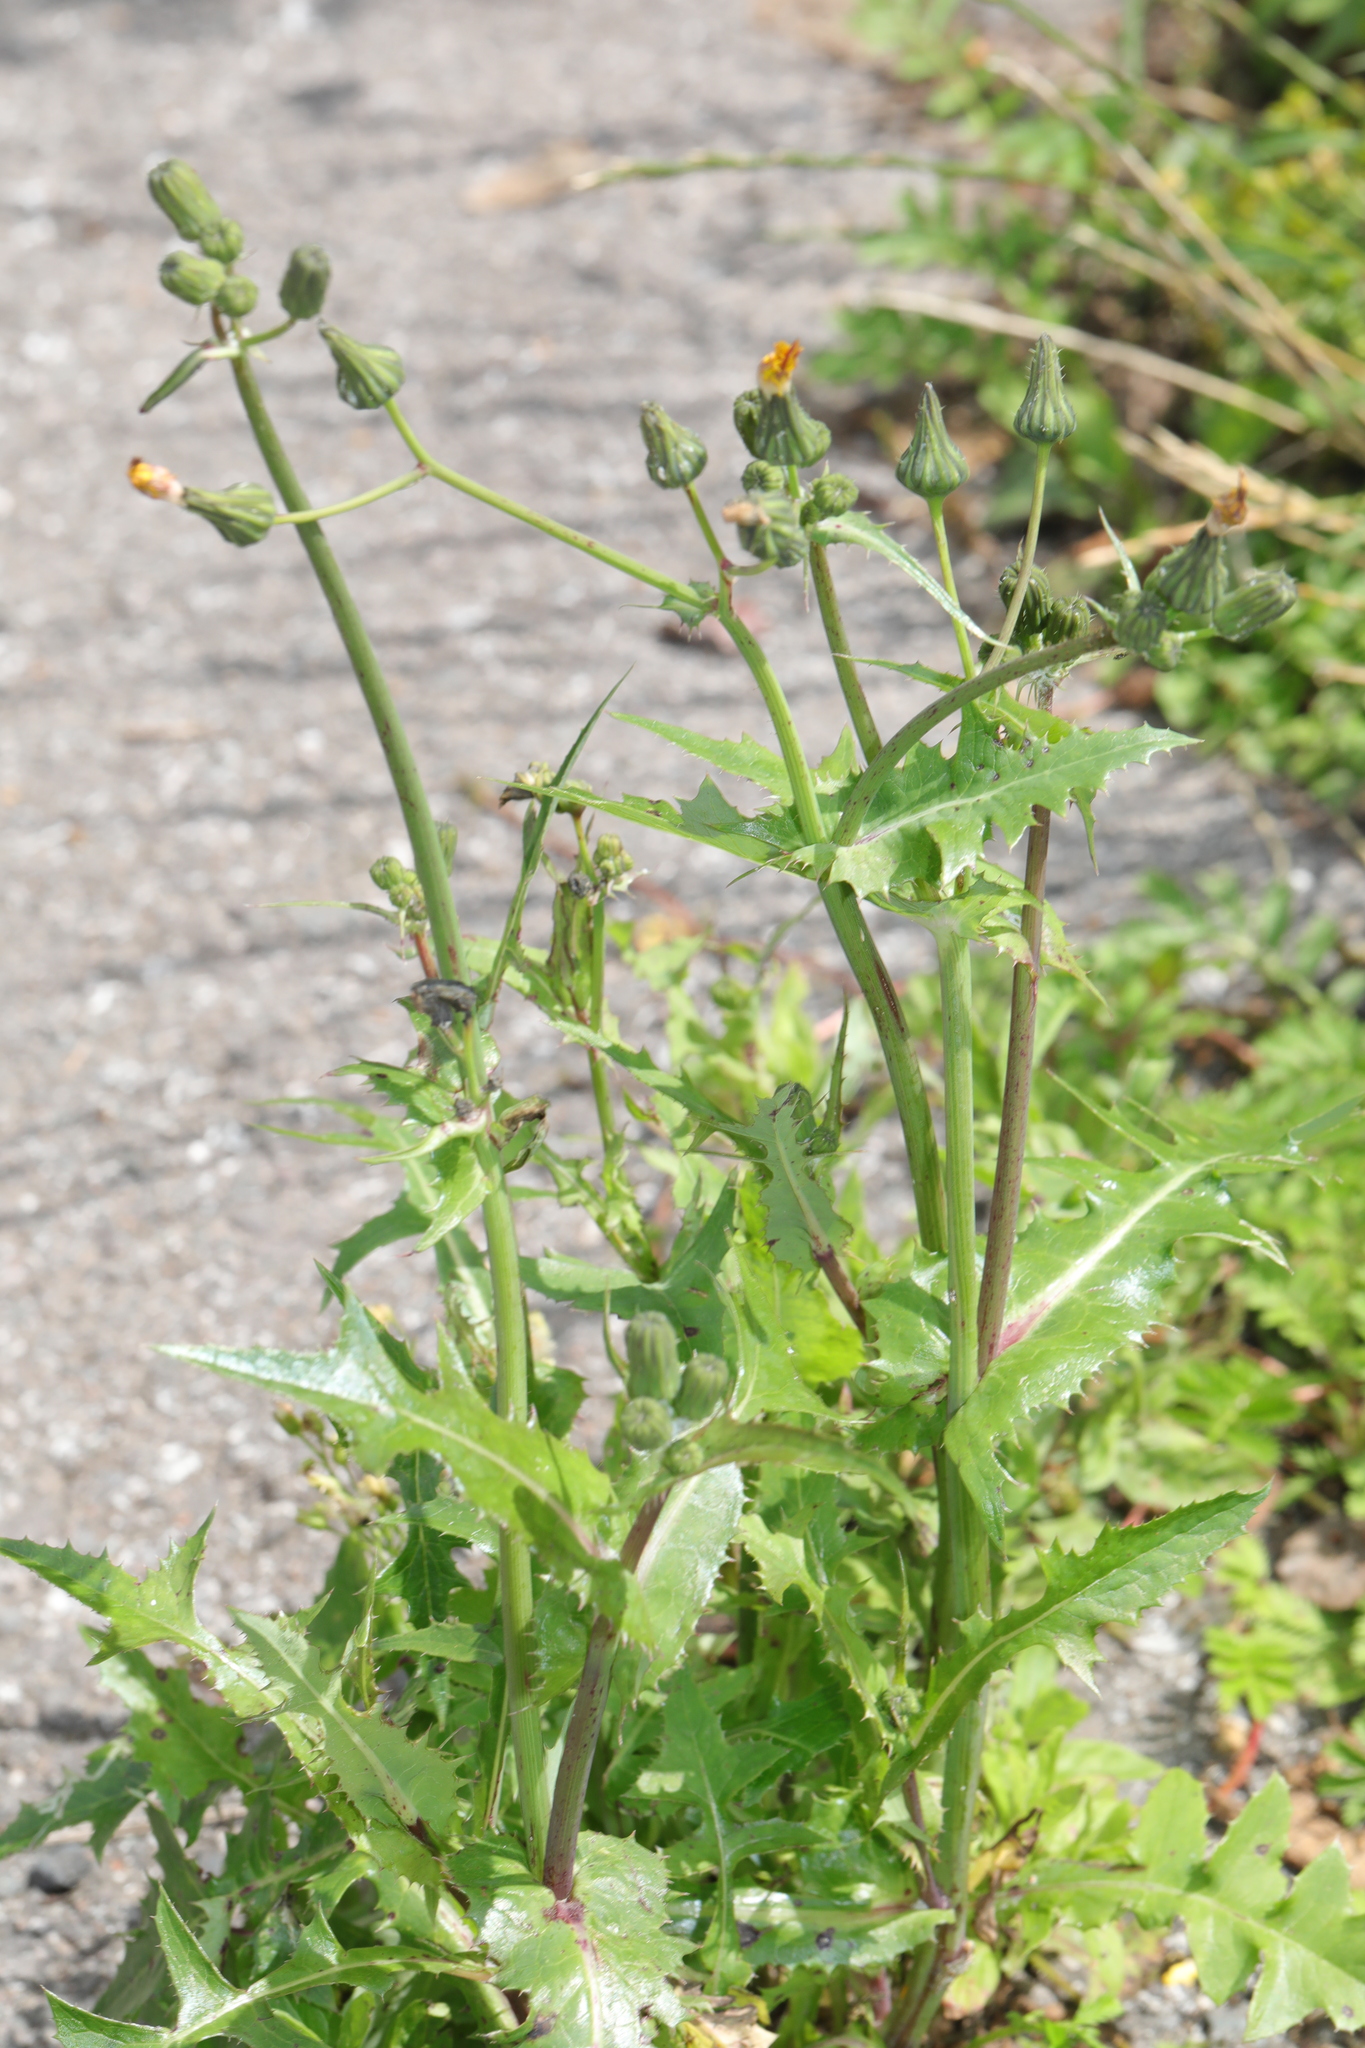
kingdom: Plantae
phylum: Tracheophyta
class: Magnoliopsida
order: Asterales
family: Asteraceae
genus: Sonchus
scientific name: Sonchus oleraceus
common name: Common sowthistle
